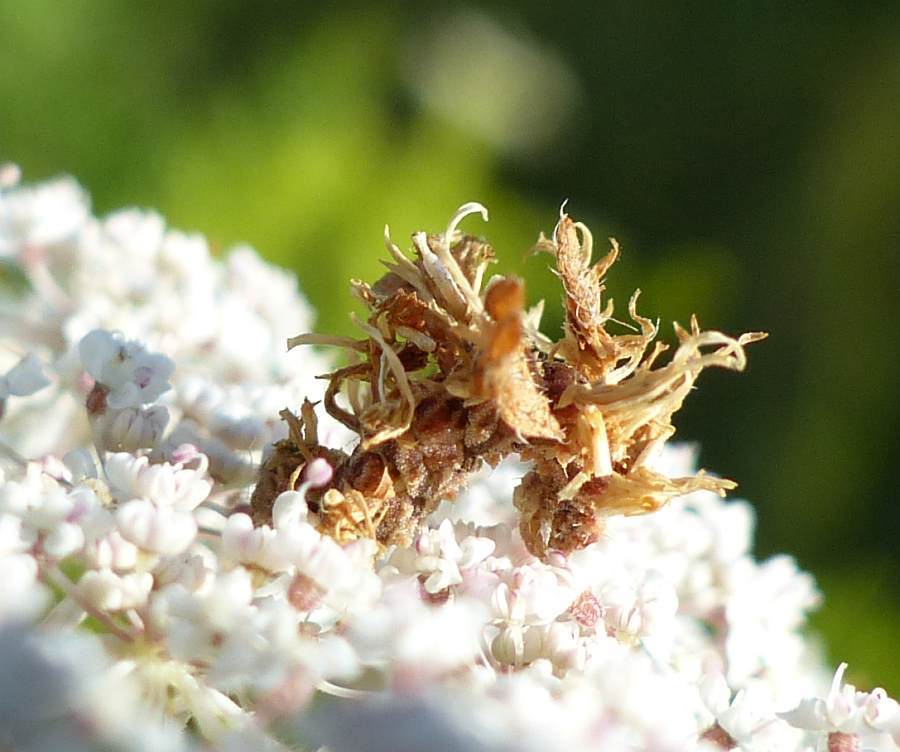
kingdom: Animalia
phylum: Arthropoda
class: Insecta
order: Lepidoptera
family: Geometridae
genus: Synchlora
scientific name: Synchlora aerata
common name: Wavy-lined emerald
